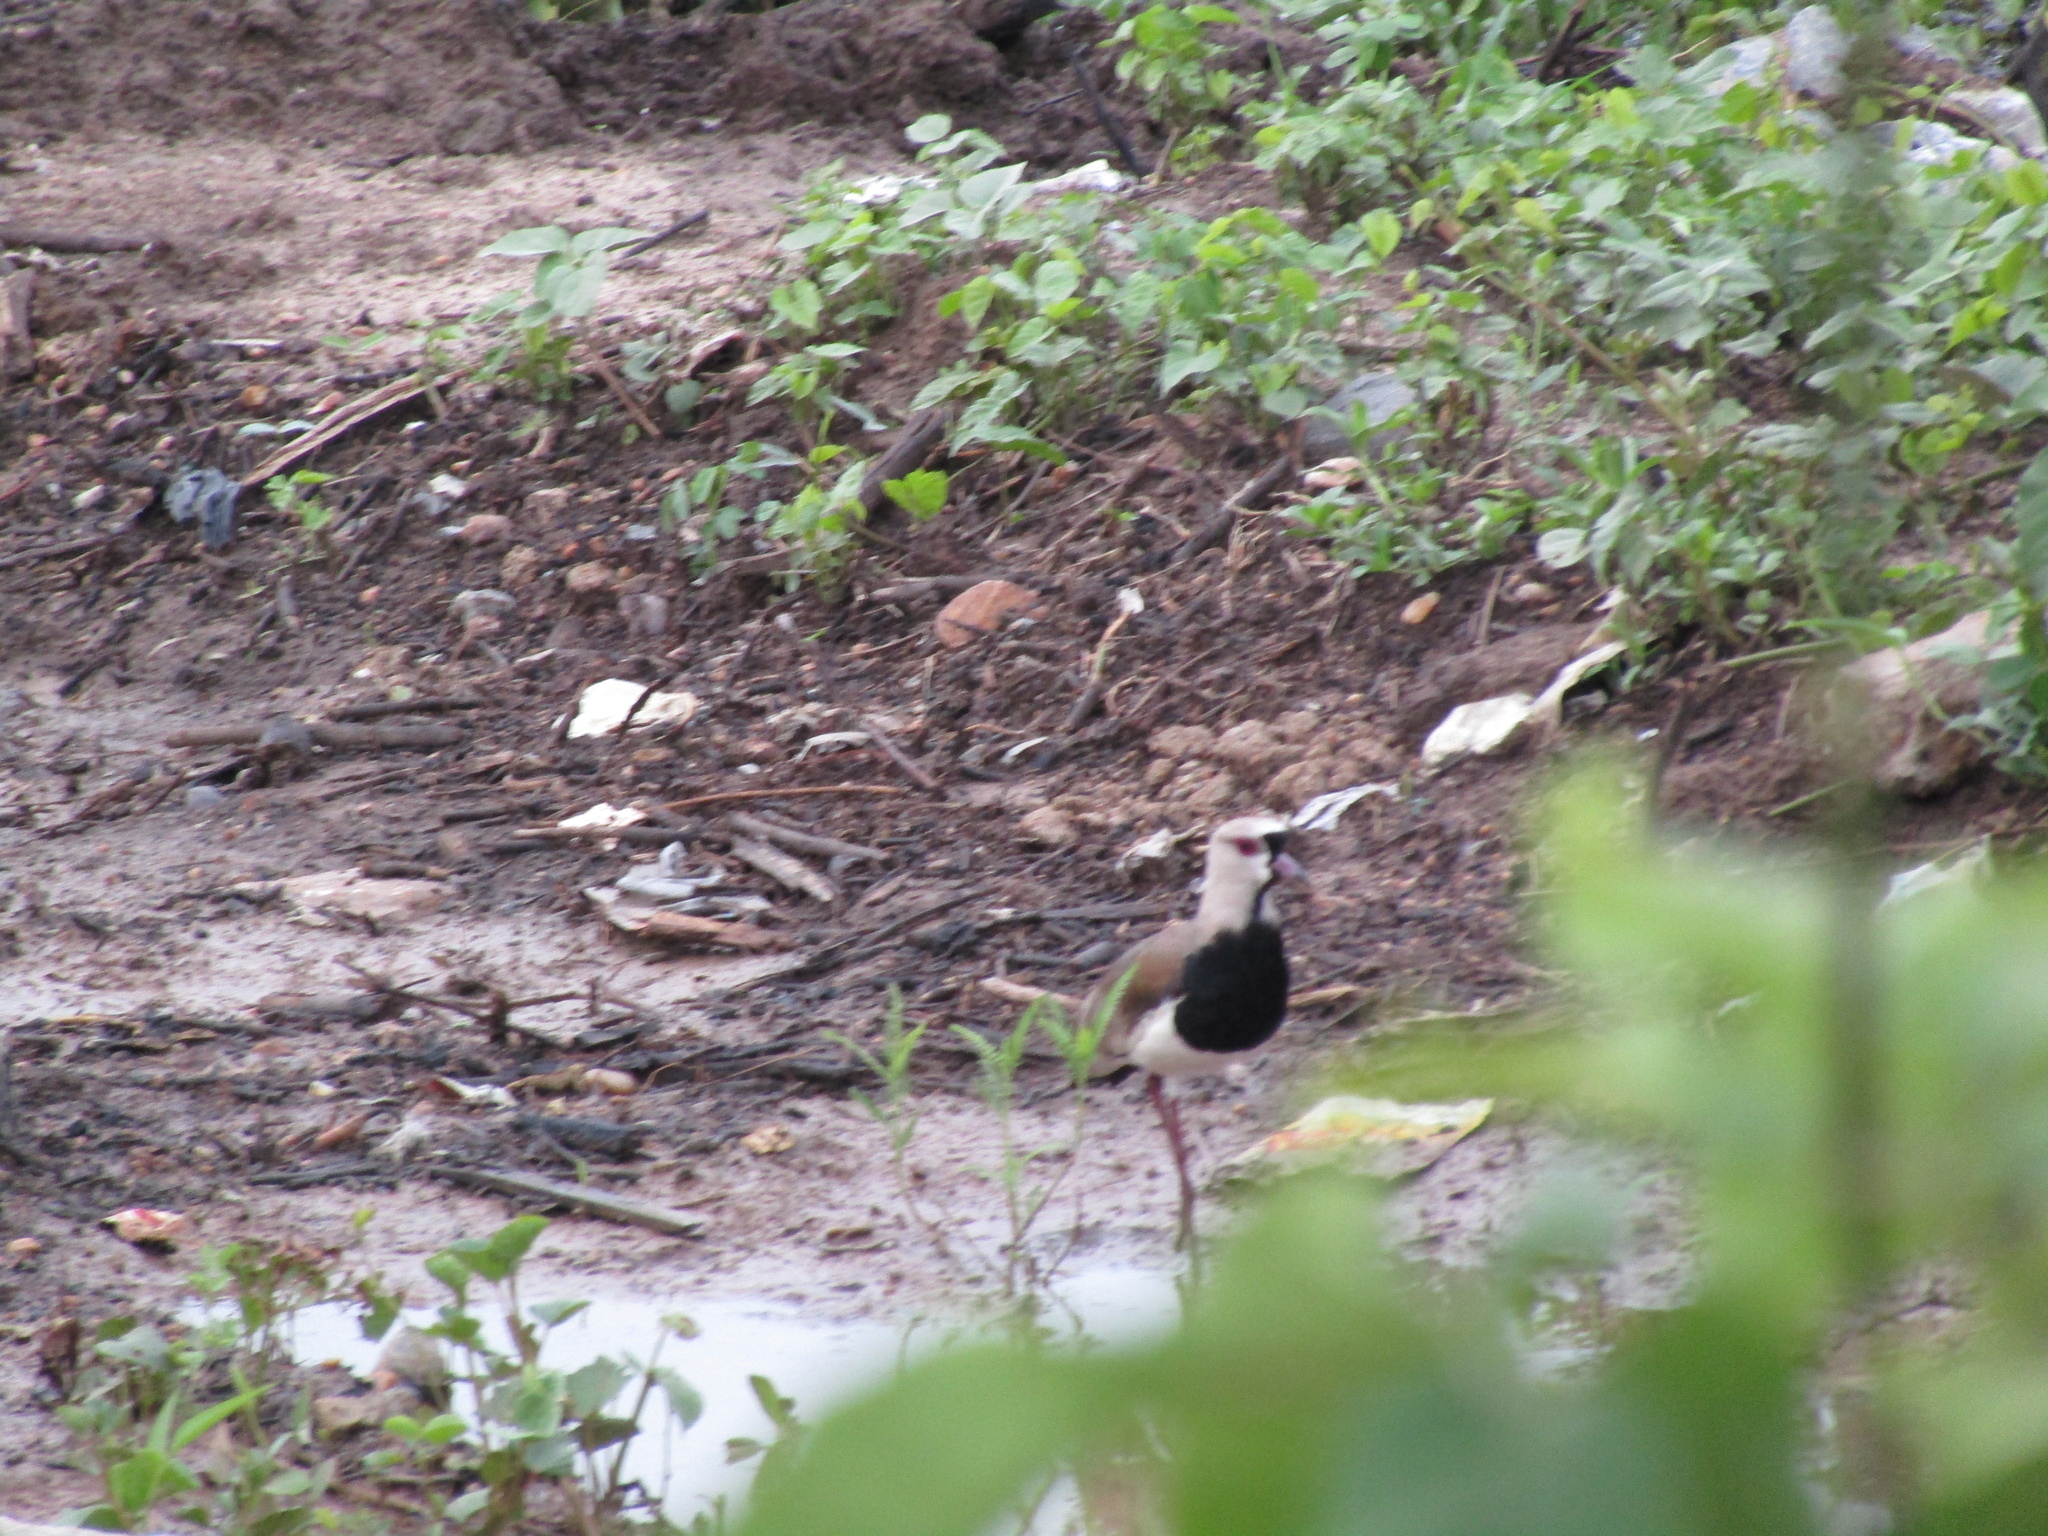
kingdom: Animalia
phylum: Chordata
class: Aves
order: Charadriiformes
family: Charadriidae
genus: Vanellus
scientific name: Vanellus chilensis
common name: Southern lapwing
